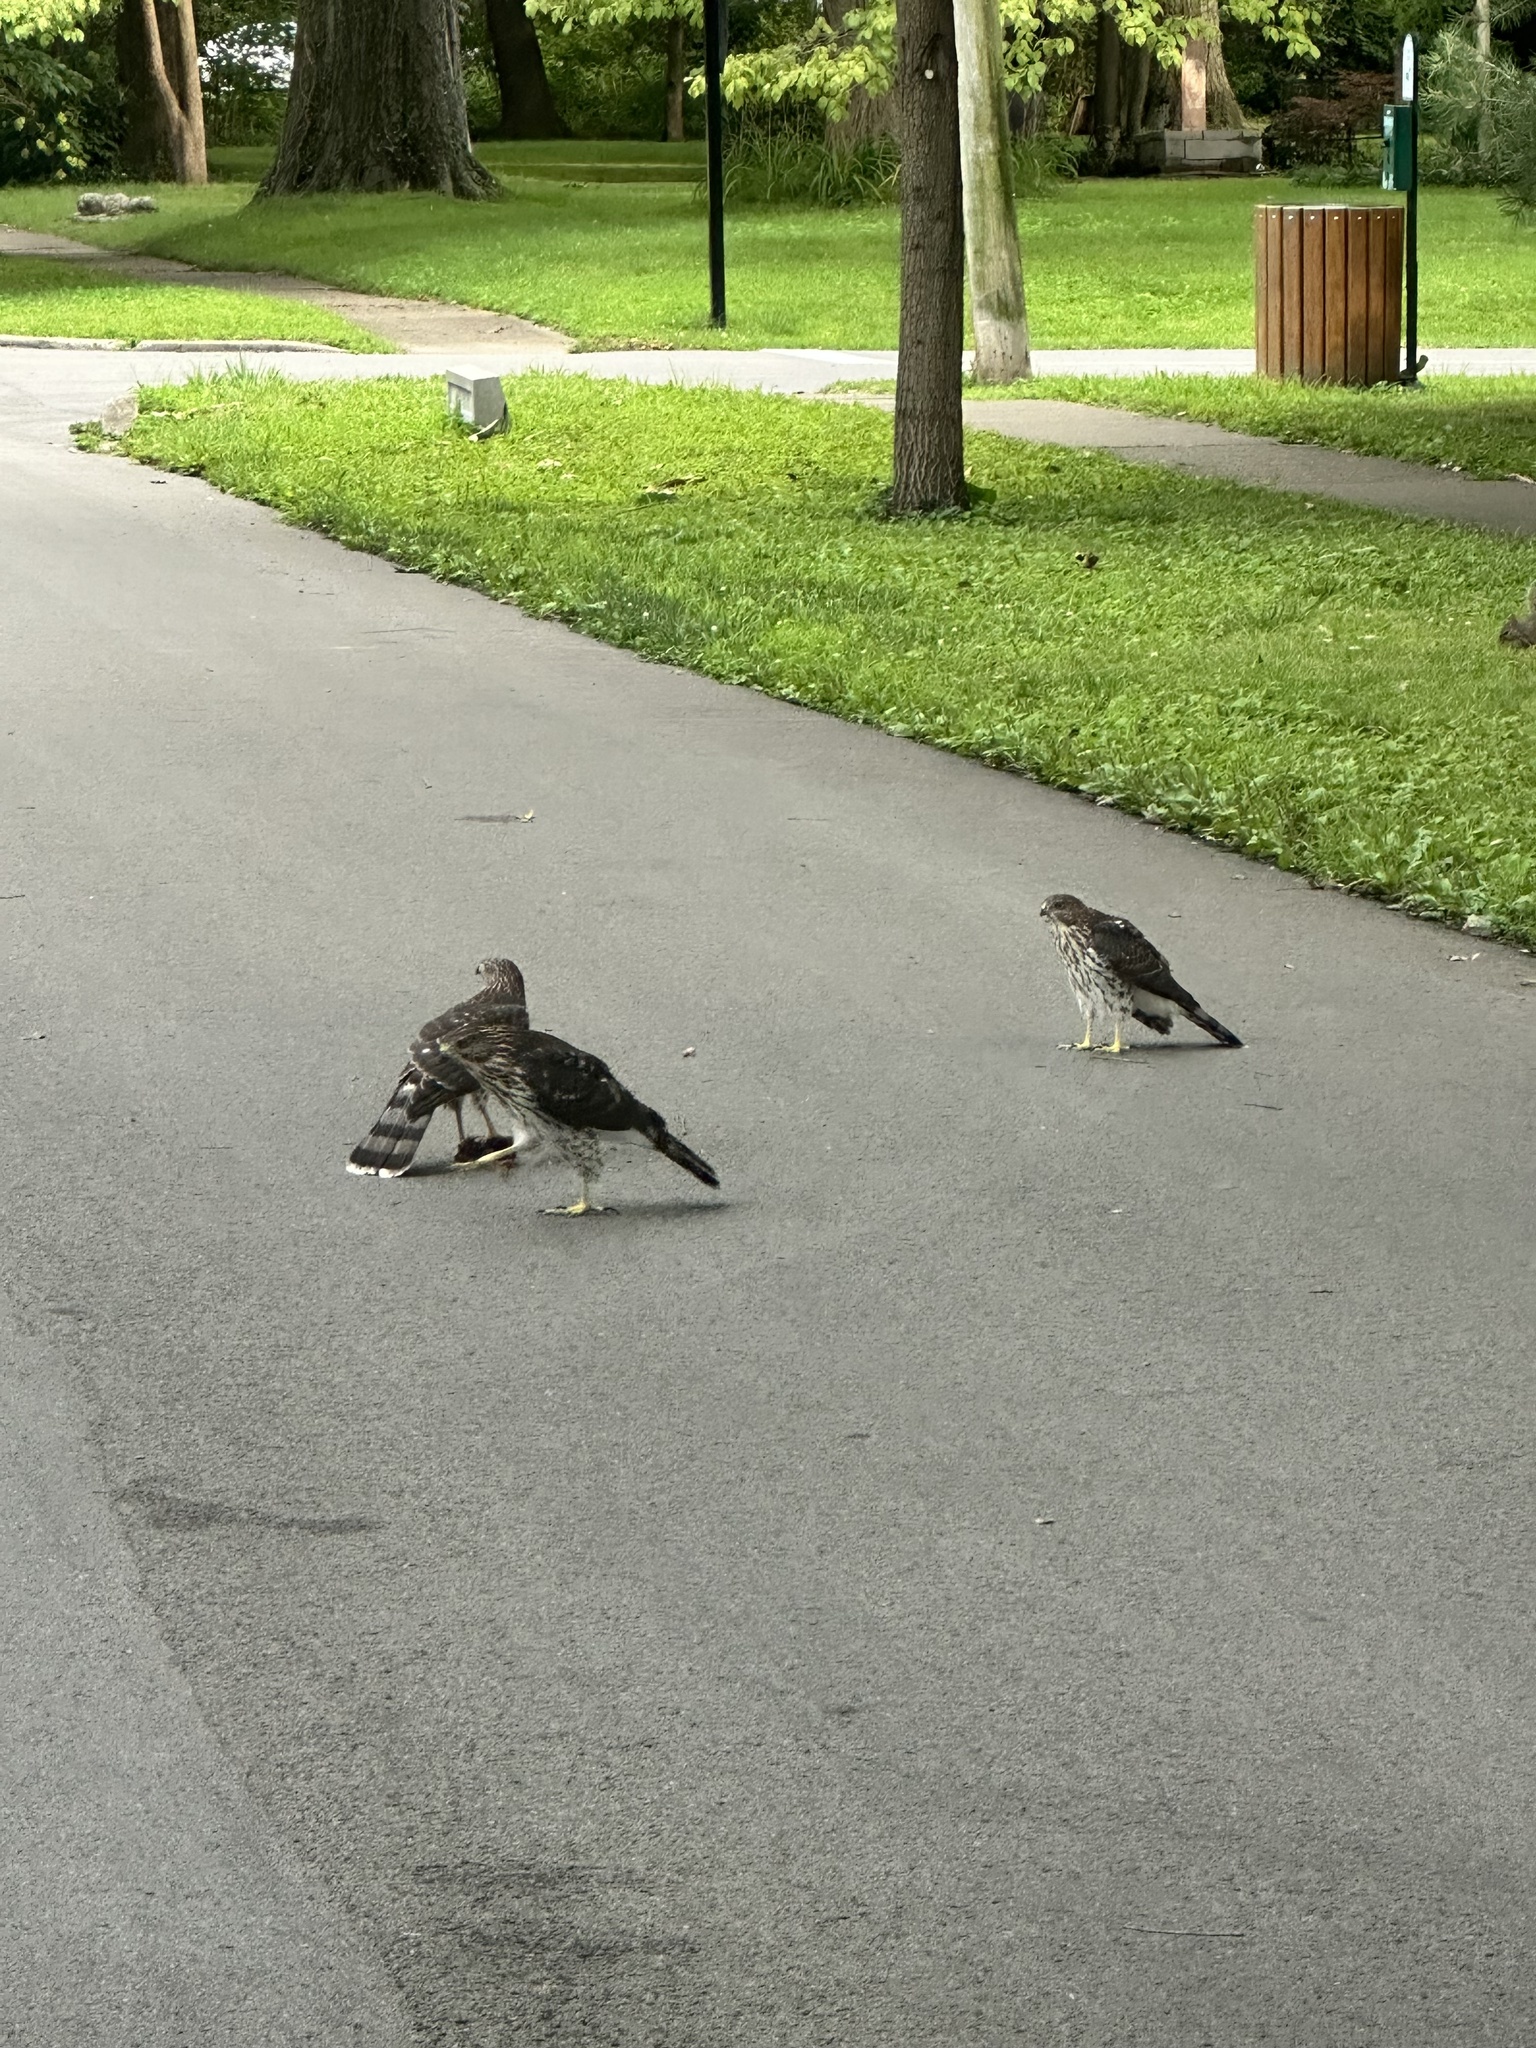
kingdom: Animalia
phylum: Chordata
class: Aves
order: Accipitriformes
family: Accipitridae
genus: Accipiter
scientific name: Accipiter cooperii
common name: Cooper's hawk
